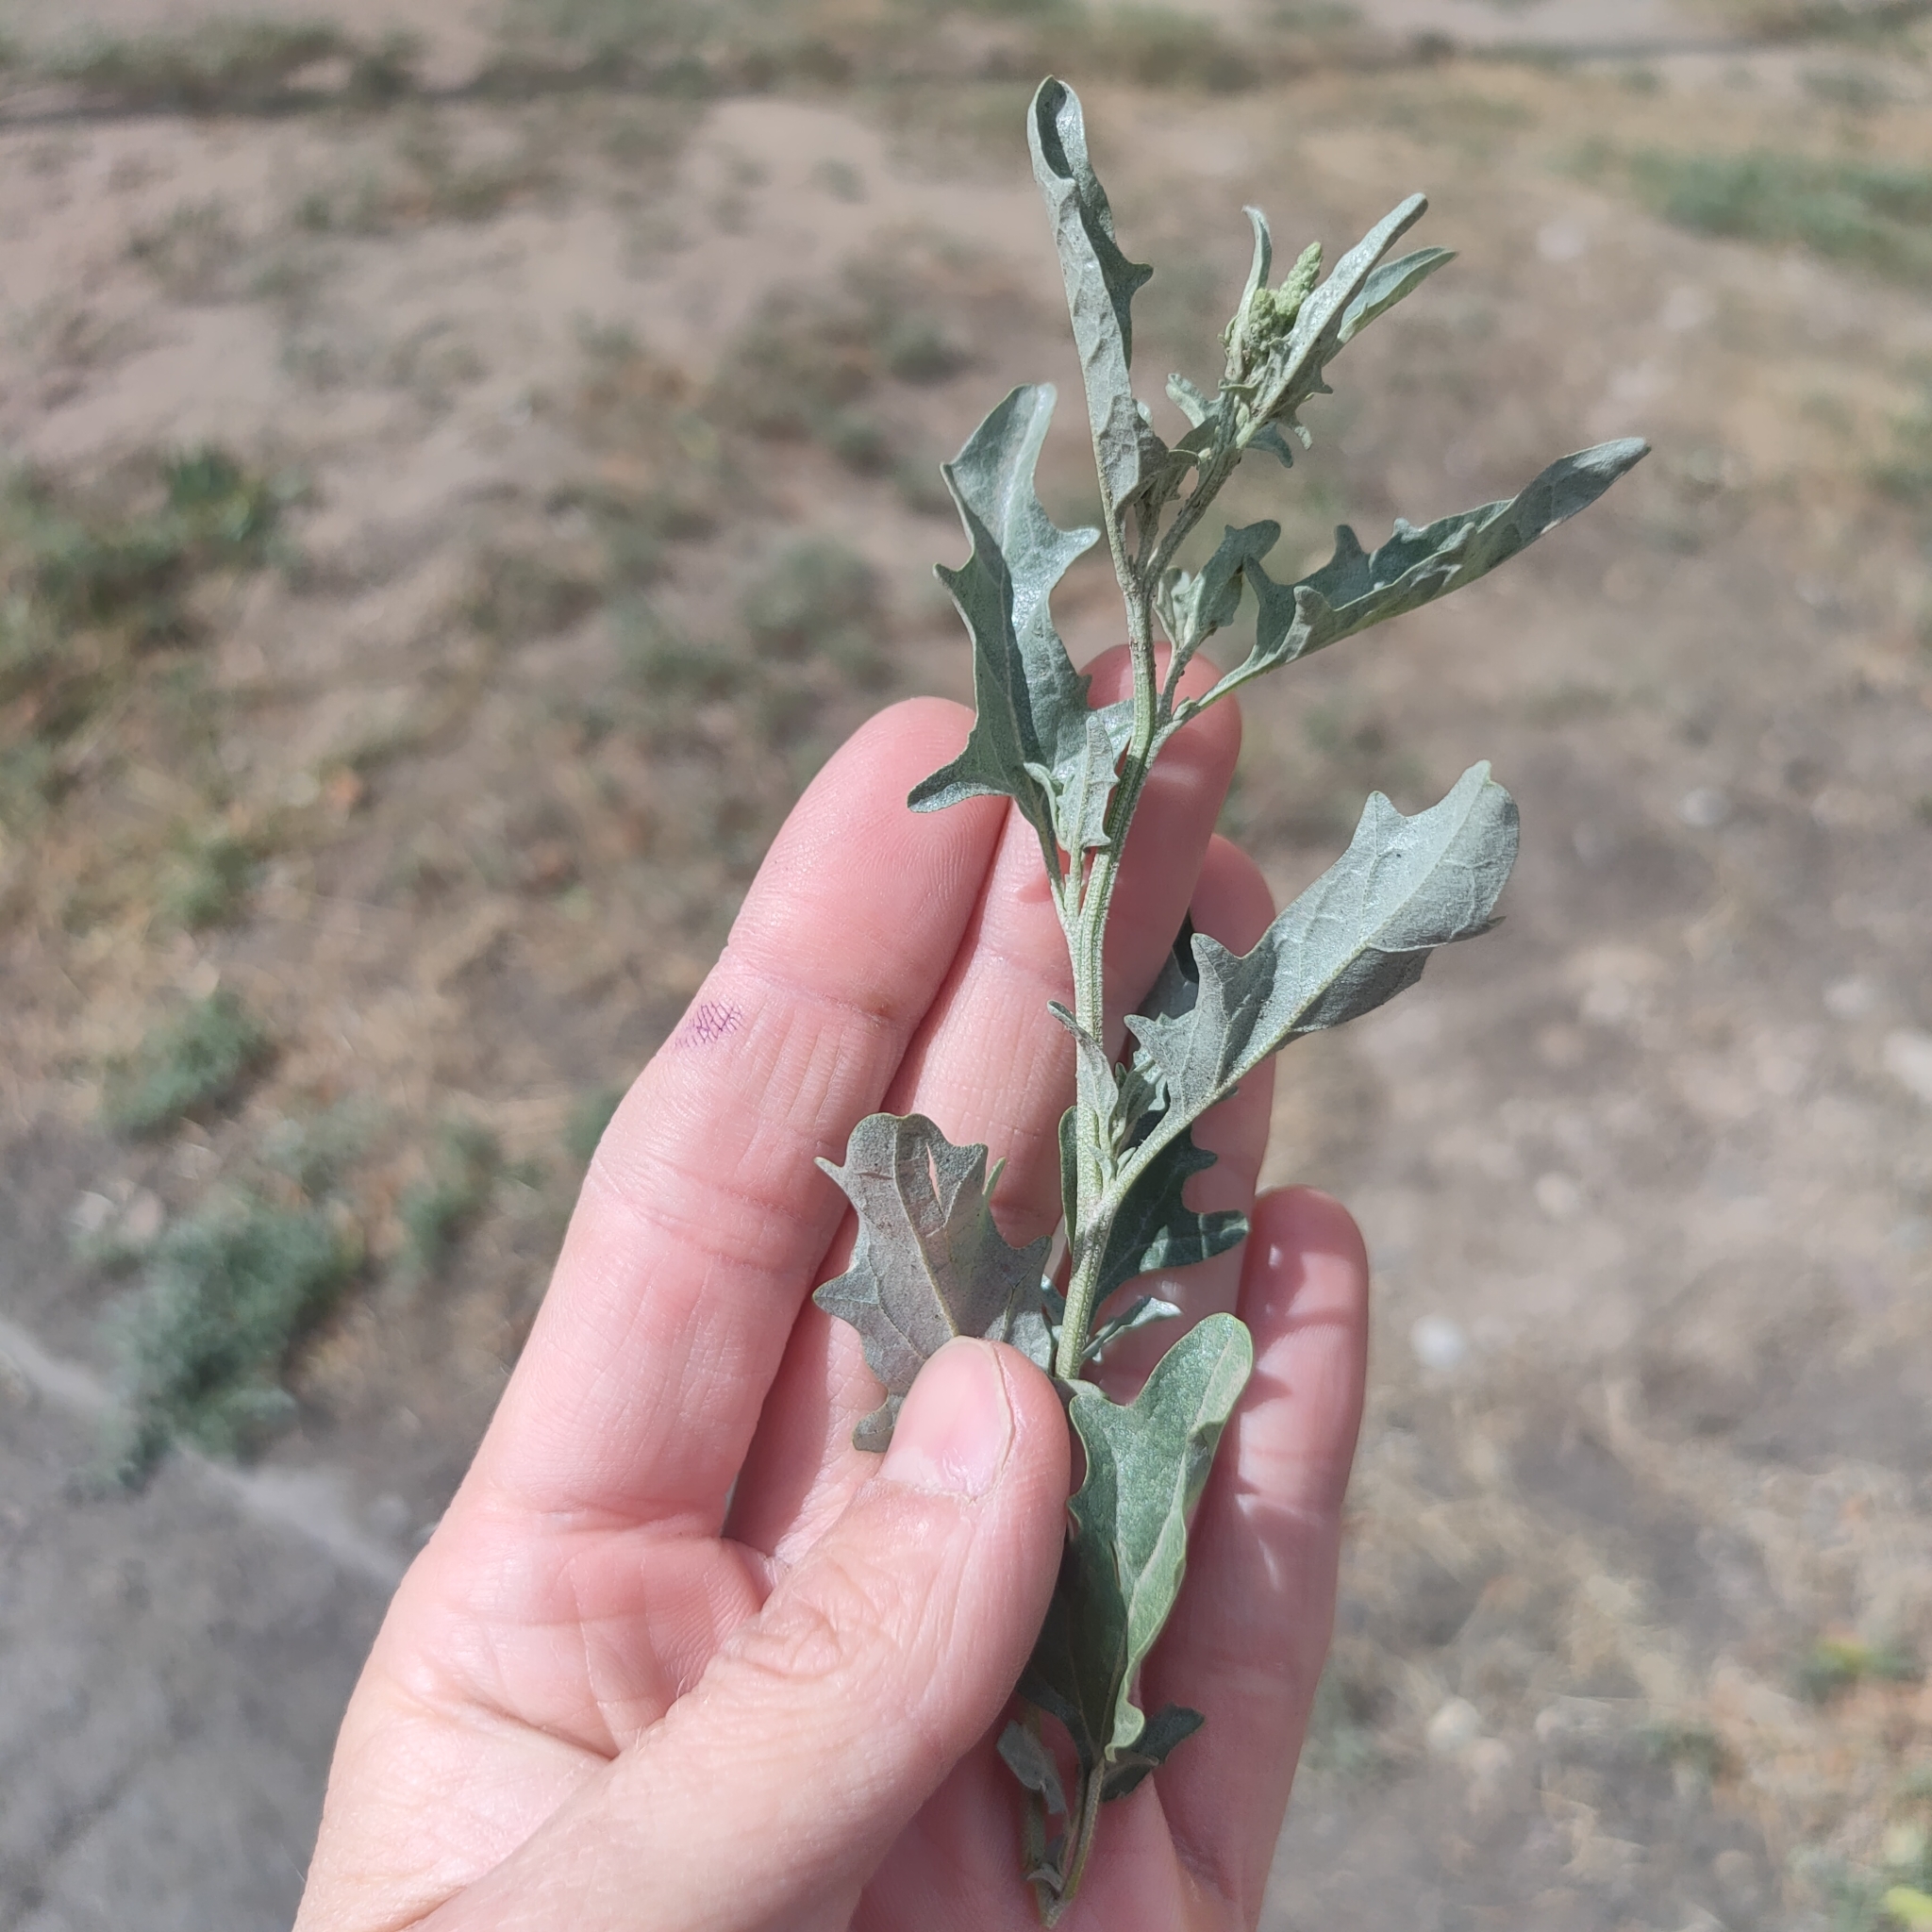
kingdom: Plantae
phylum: Tracheophyta
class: Magnoliopsida
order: Caryophyllales
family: Amaranthaceae
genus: Atriplex
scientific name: Atriplex tatarica
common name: Tatarian orache
